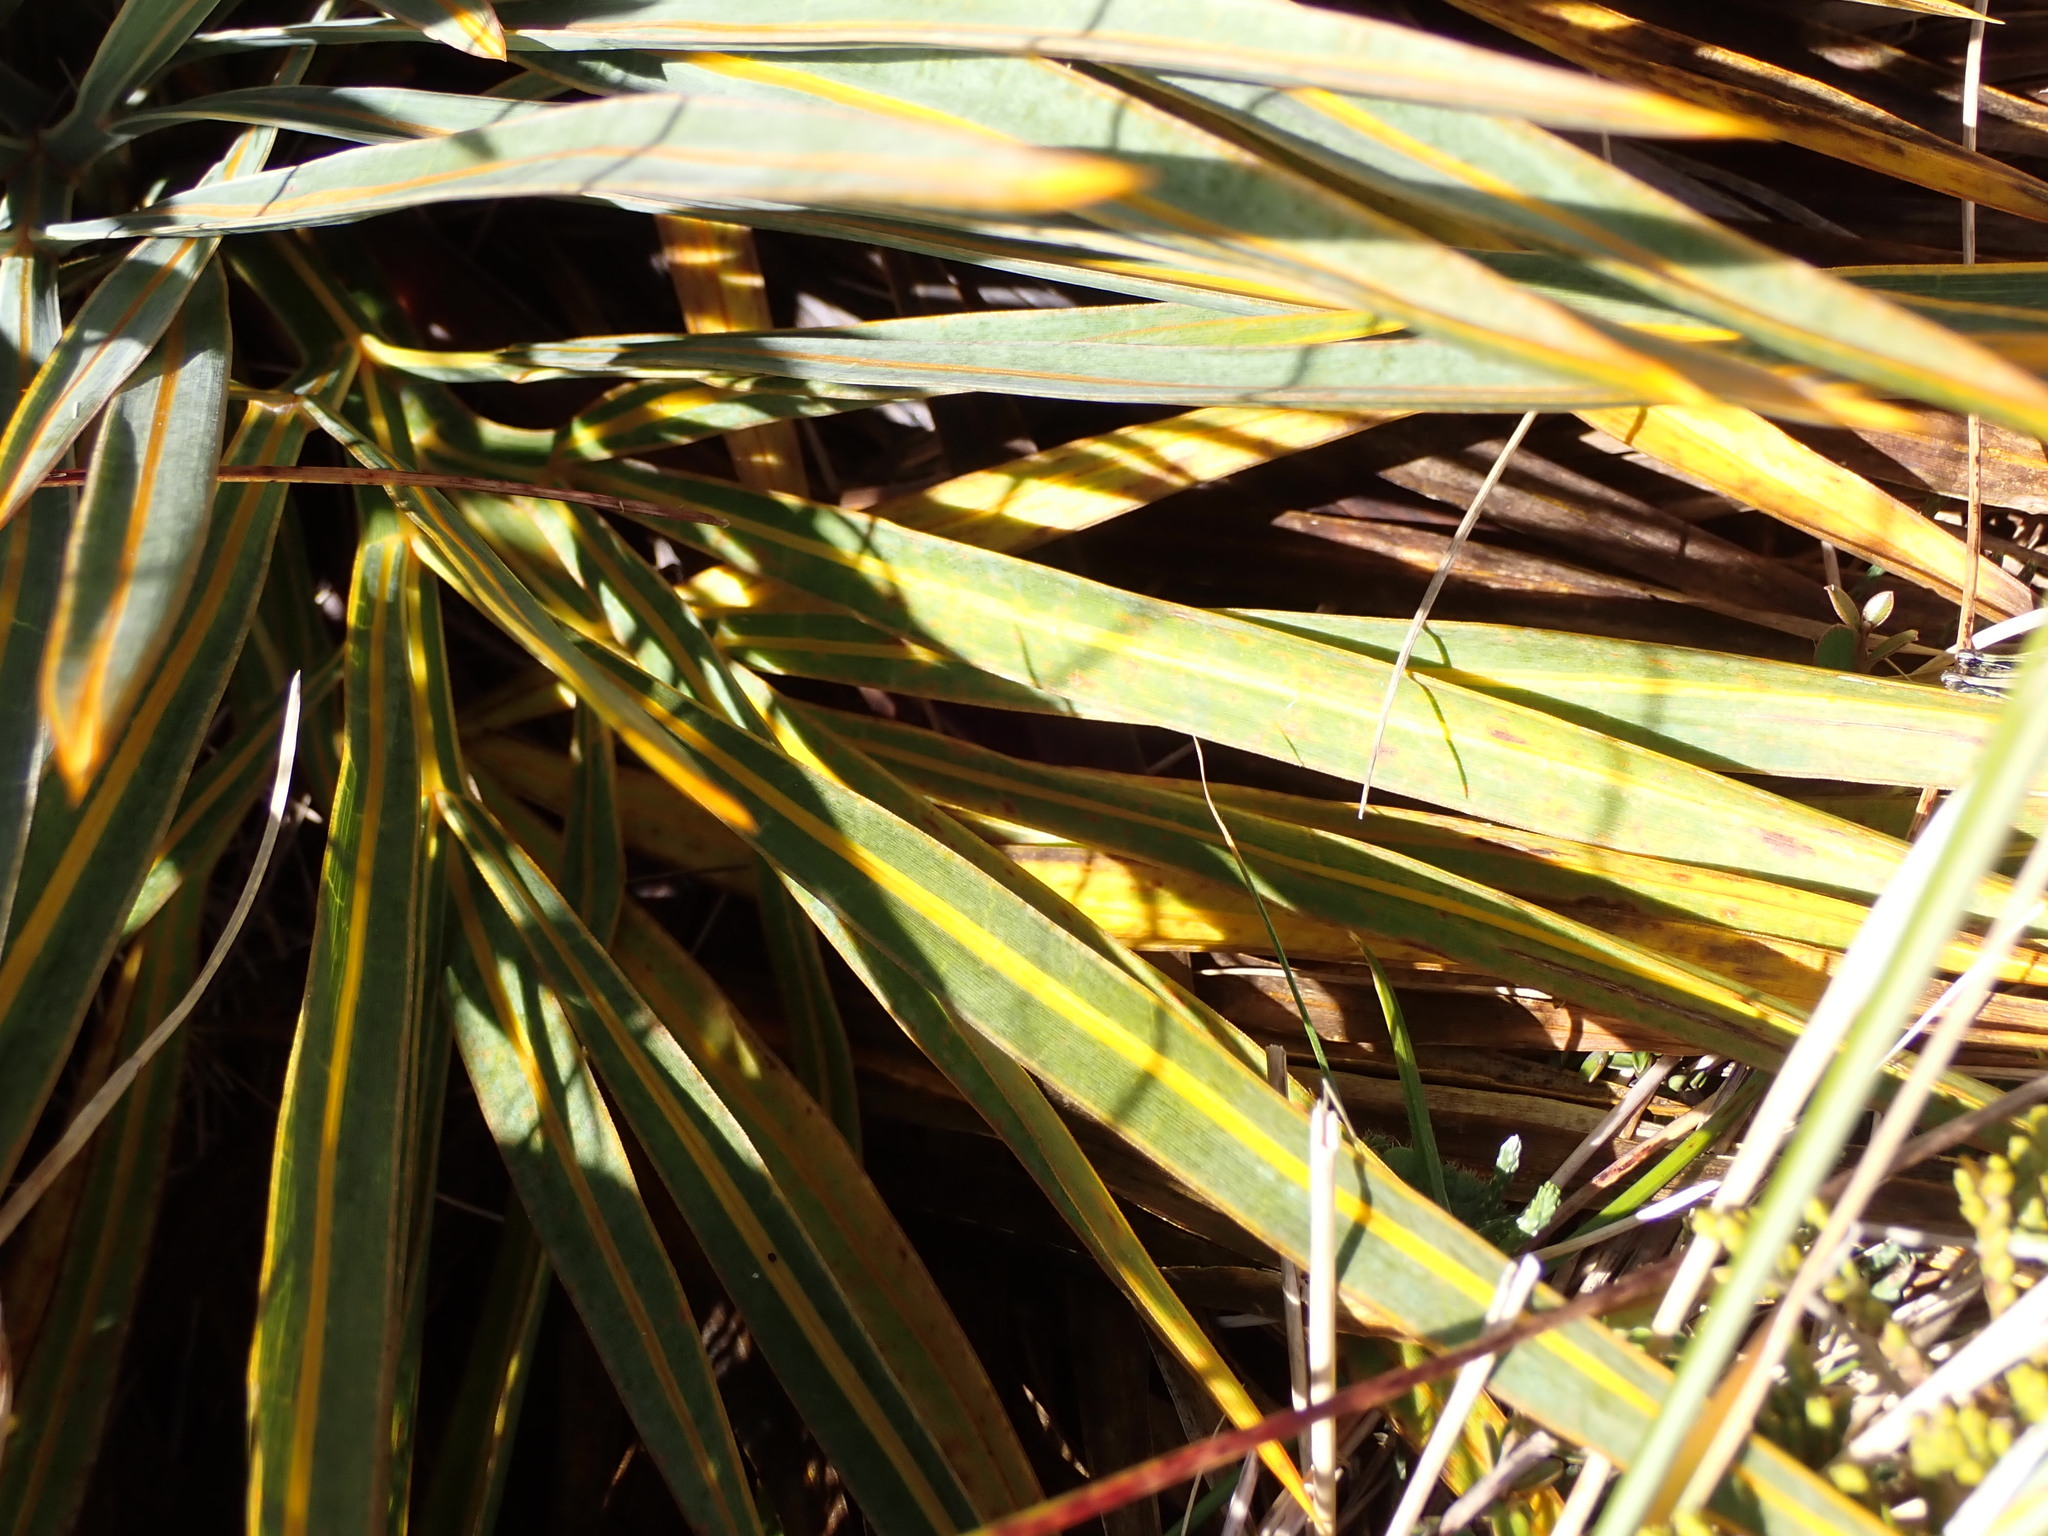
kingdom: Plantae
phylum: Tracheophyta
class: Magnoliopsida
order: Apiales
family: Apiaceae
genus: Aciphylla
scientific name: Aciphylla colensoi
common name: Colenso's spaniard
